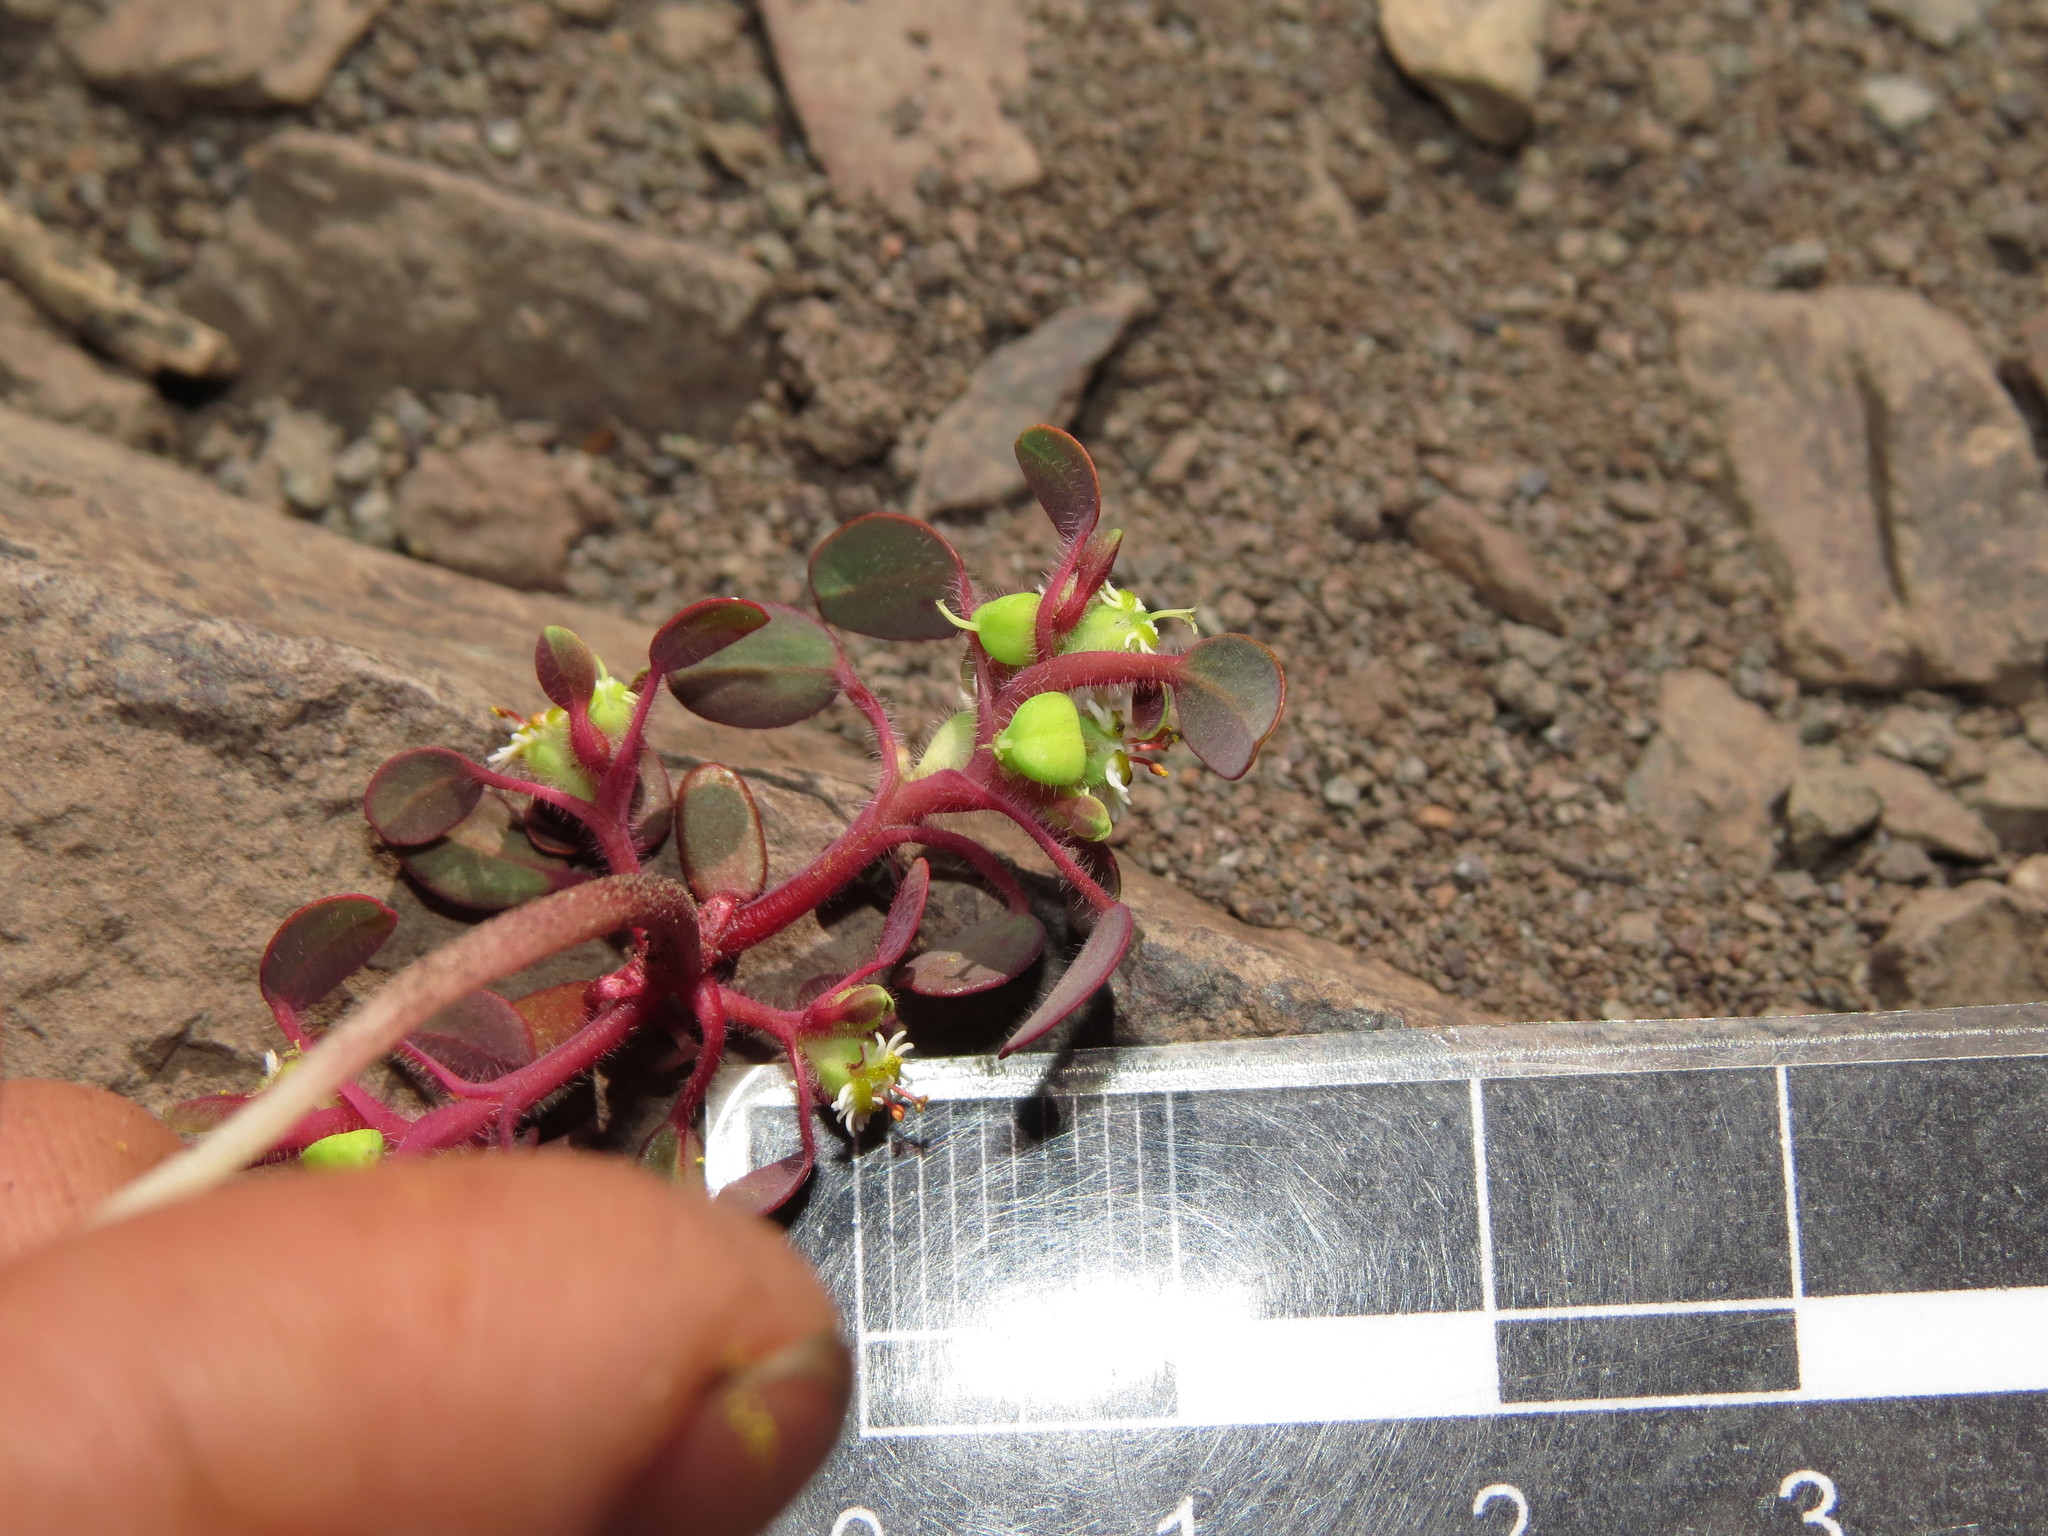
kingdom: Plantae
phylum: Tracheophyta
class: Magnoliopsida
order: Malpighiales
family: Euphorbiaceae
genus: Euphorbia
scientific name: Euphorbia germainii
